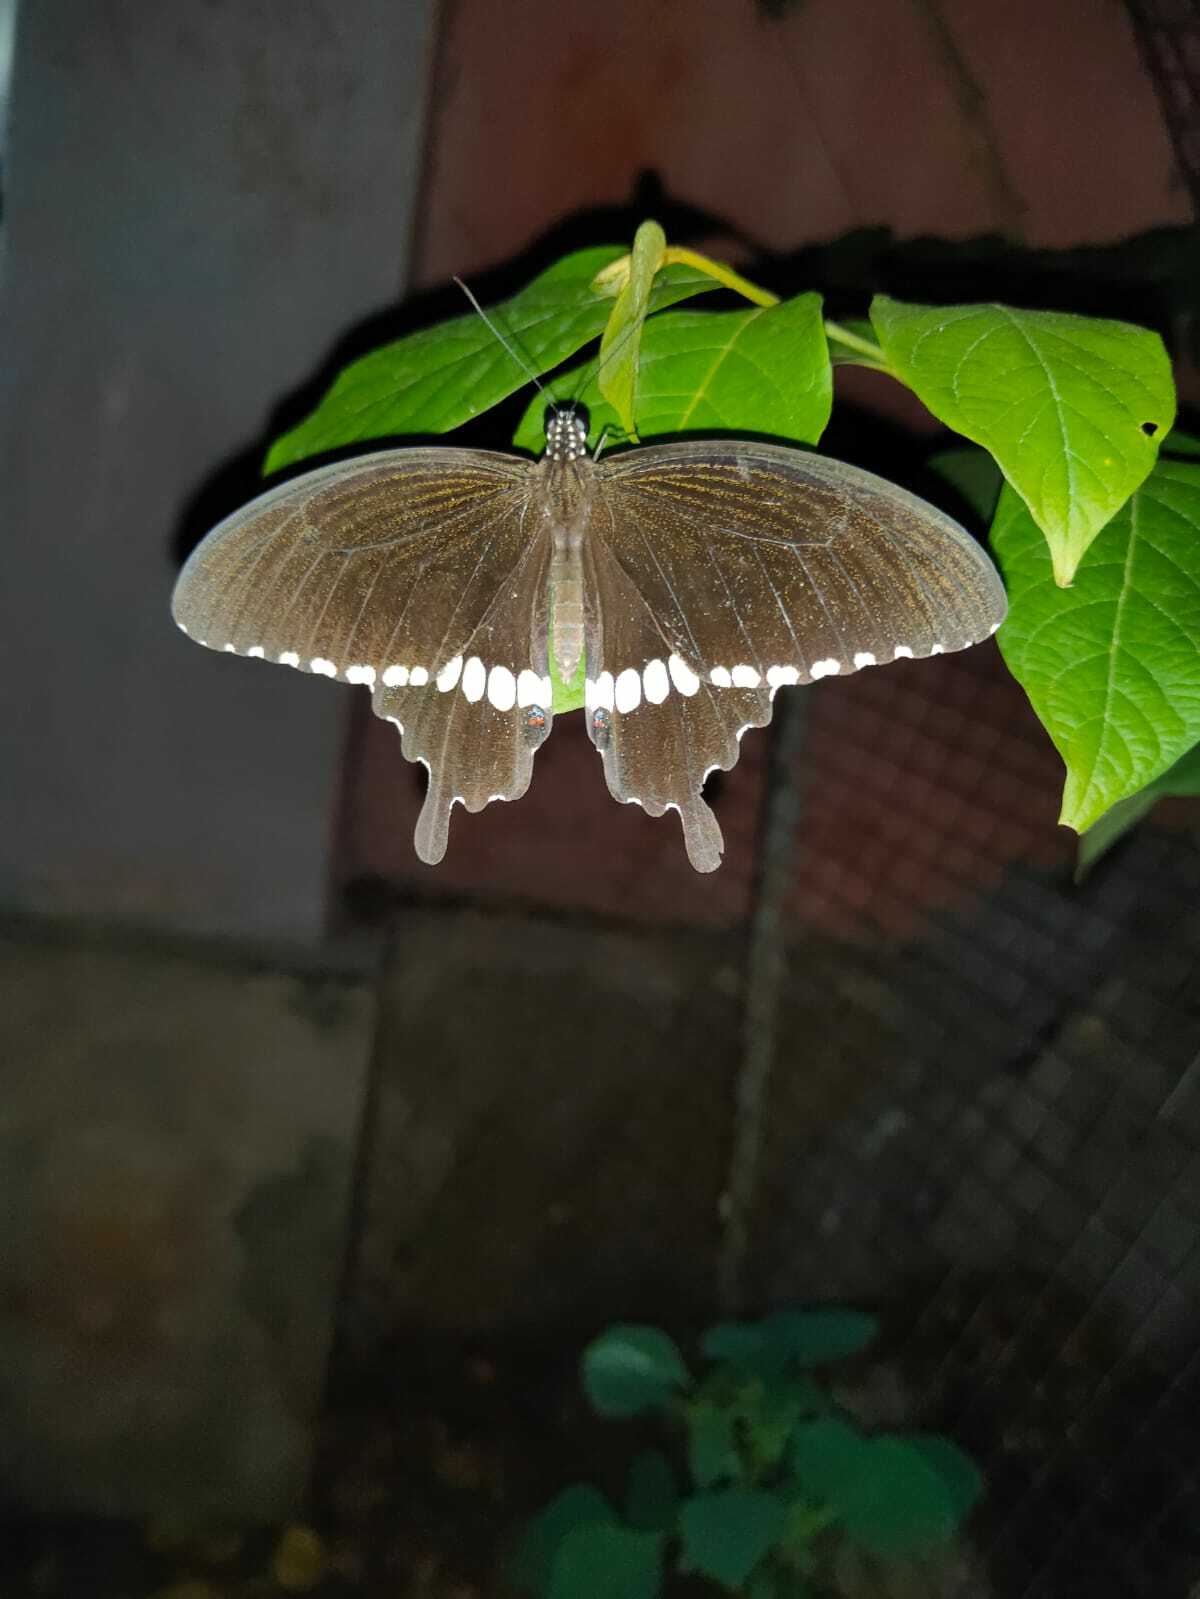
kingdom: Animalia
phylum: Arthropoda
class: Insecta
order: Lepidoptera
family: Papilionidae
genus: Papilio
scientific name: Papilio polytes
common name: Common mormon
